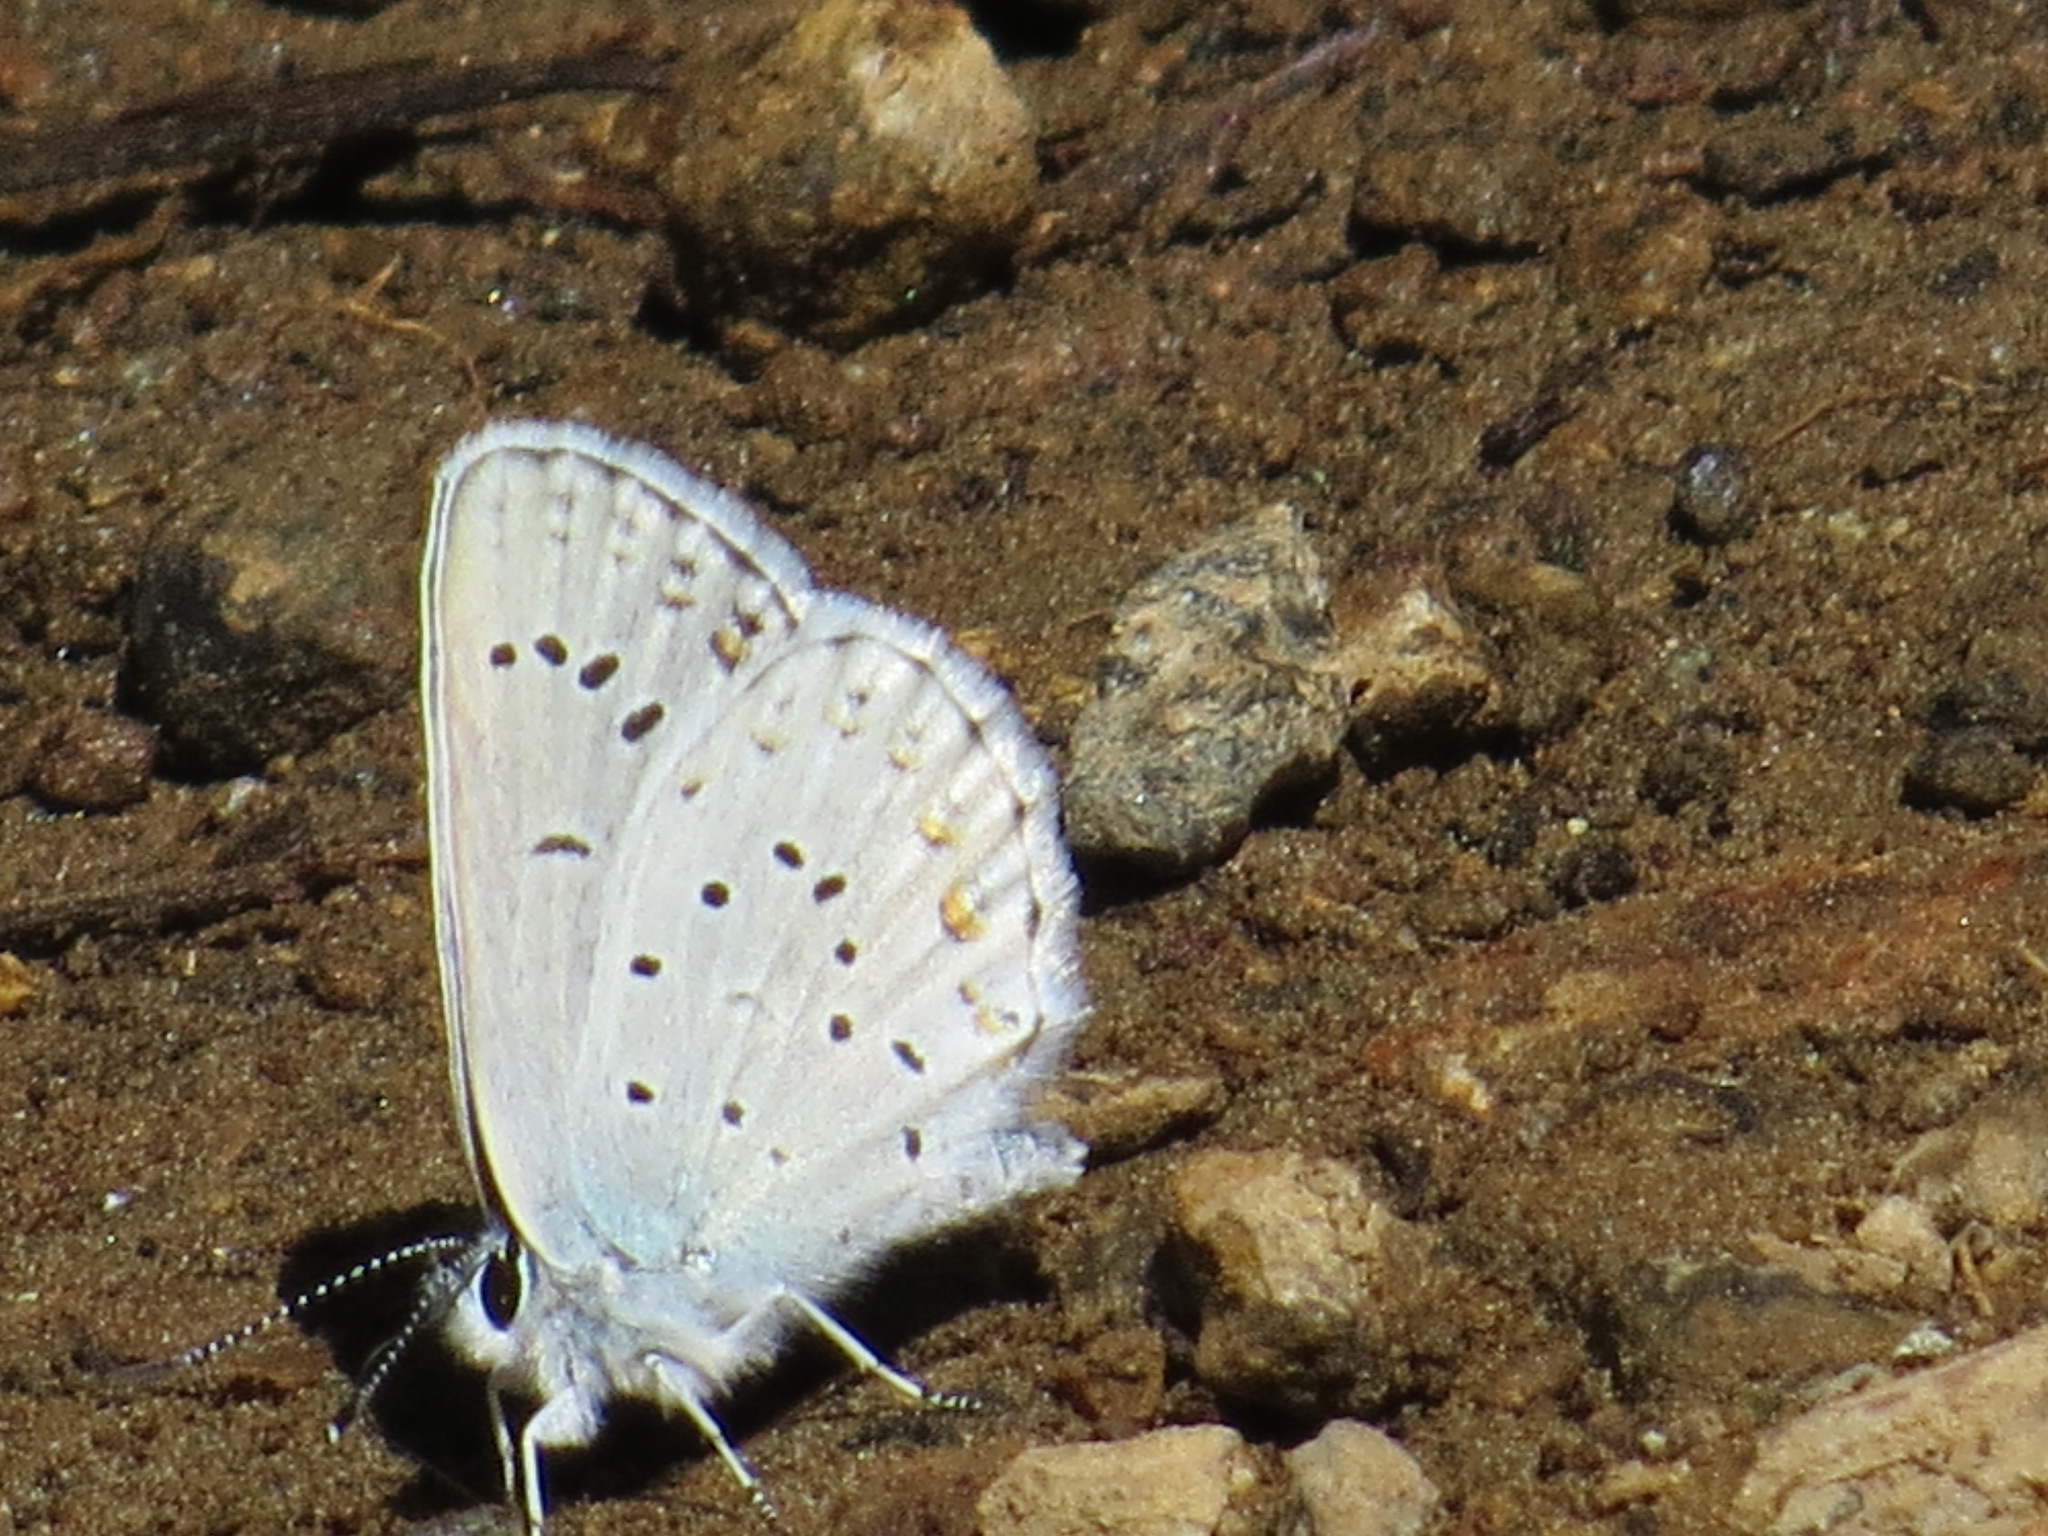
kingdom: Animalia
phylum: Arthropoda
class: Insecta
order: Lepidoptera
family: Lycaenidae
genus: Lycaeides
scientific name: Lycaeides anna
